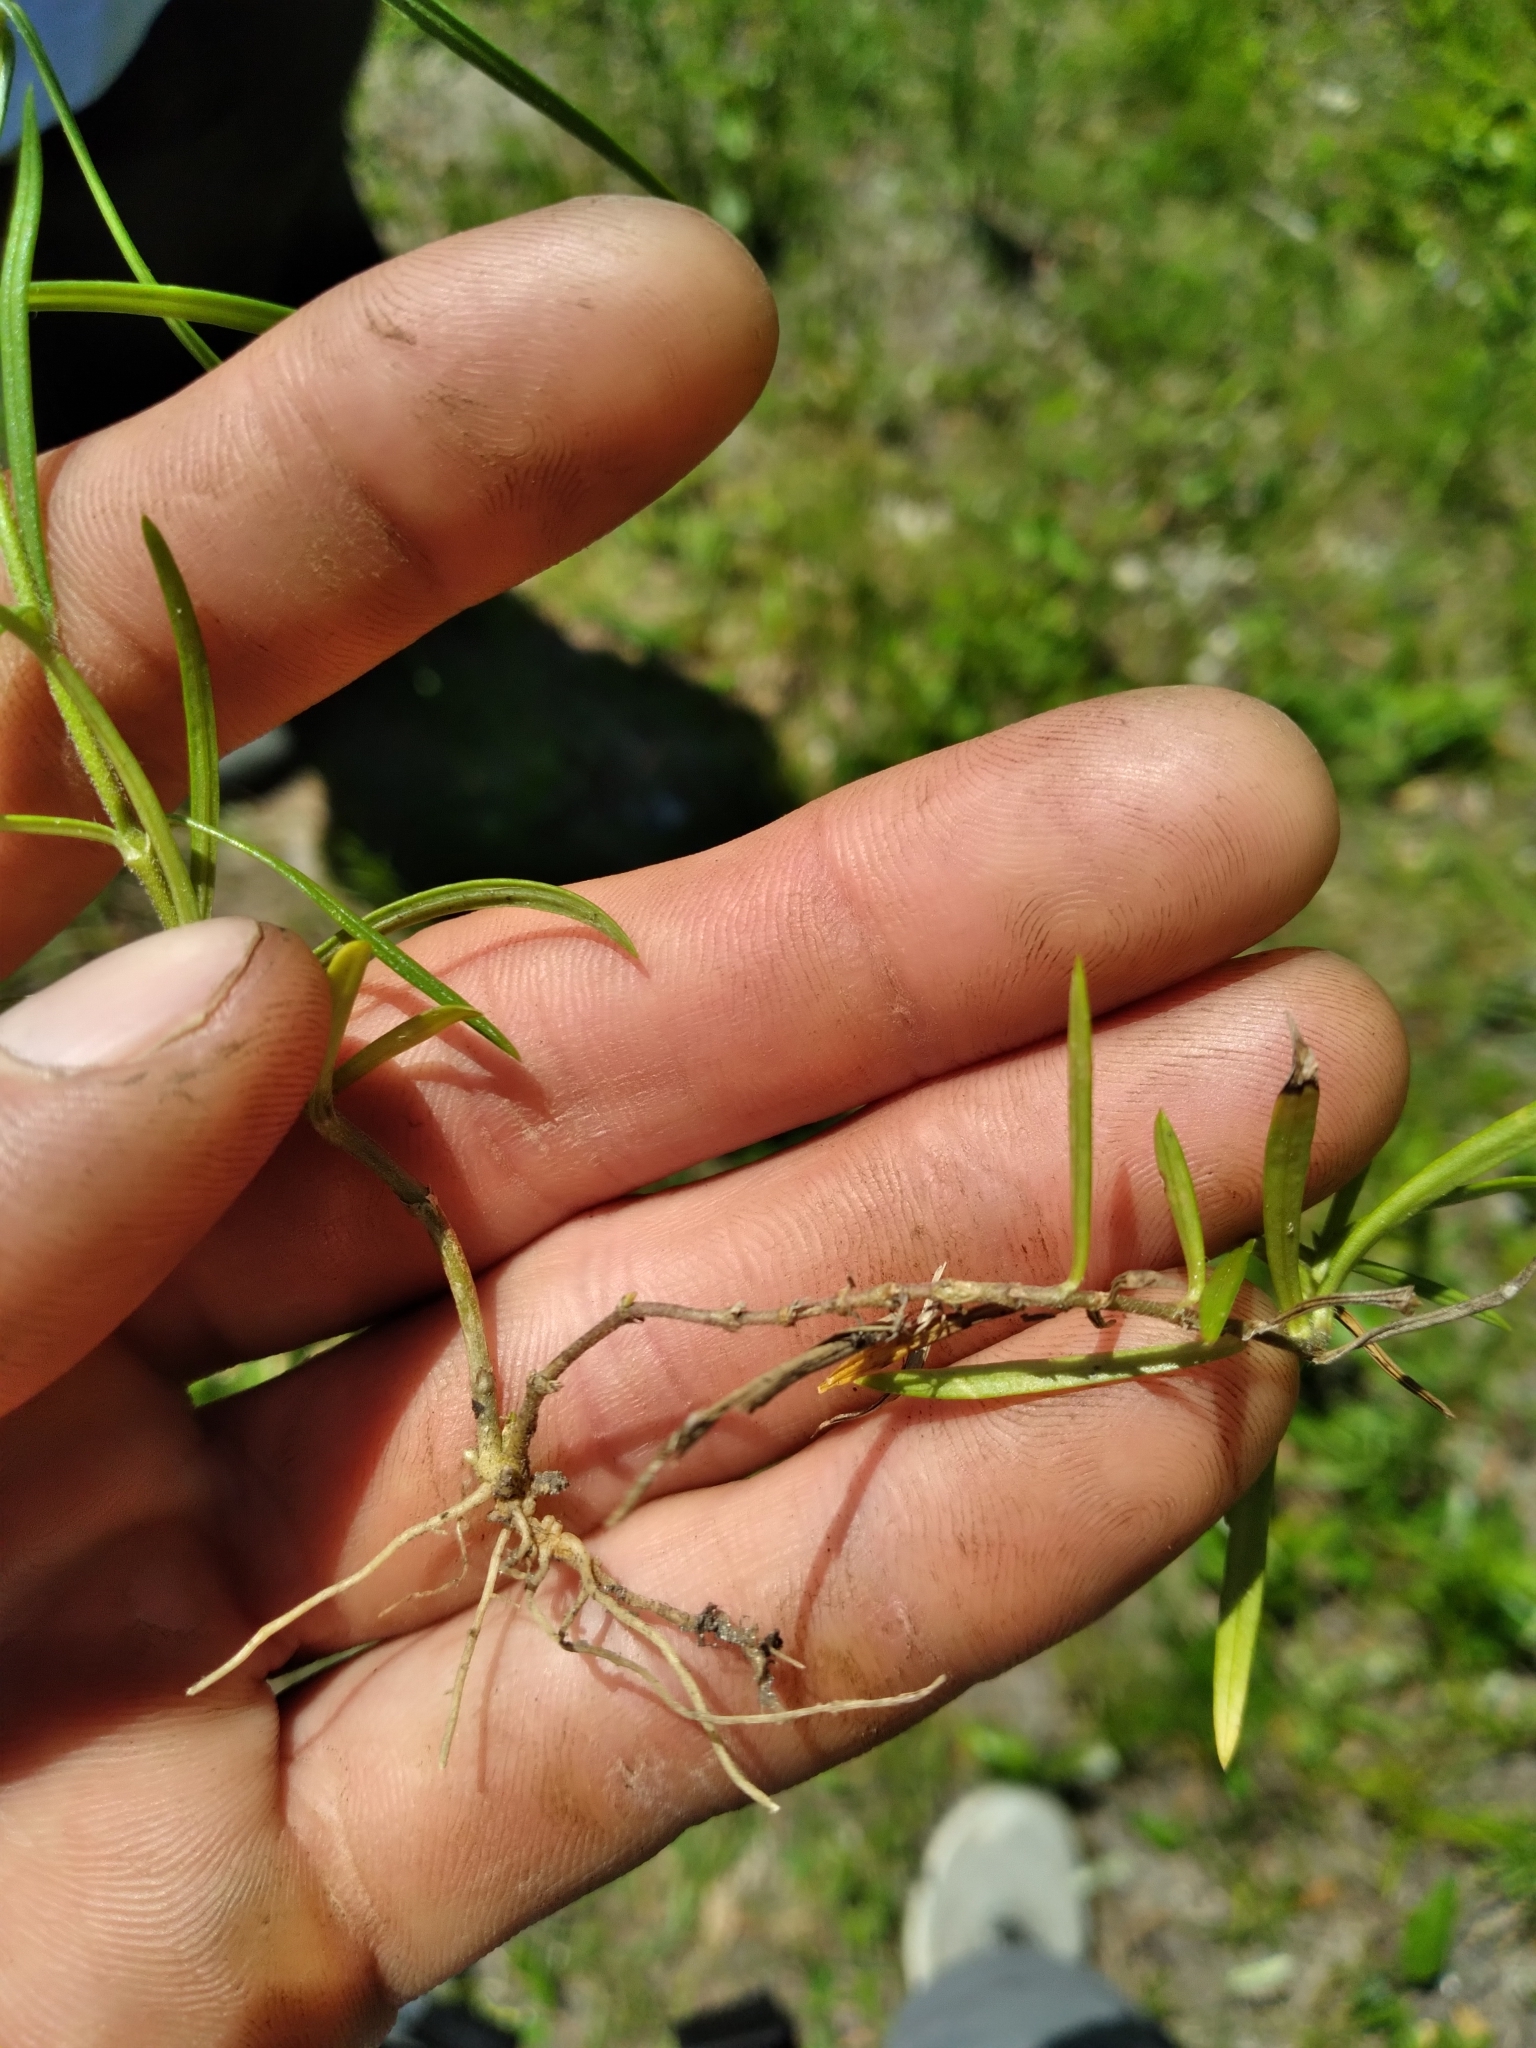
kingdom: Plantae
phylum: Tracheophyta
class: Magnoliopsida
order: Ericales
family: Polemoniaceae
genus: Phlox
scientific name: Phlox pilosa
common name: Prairie phlox
